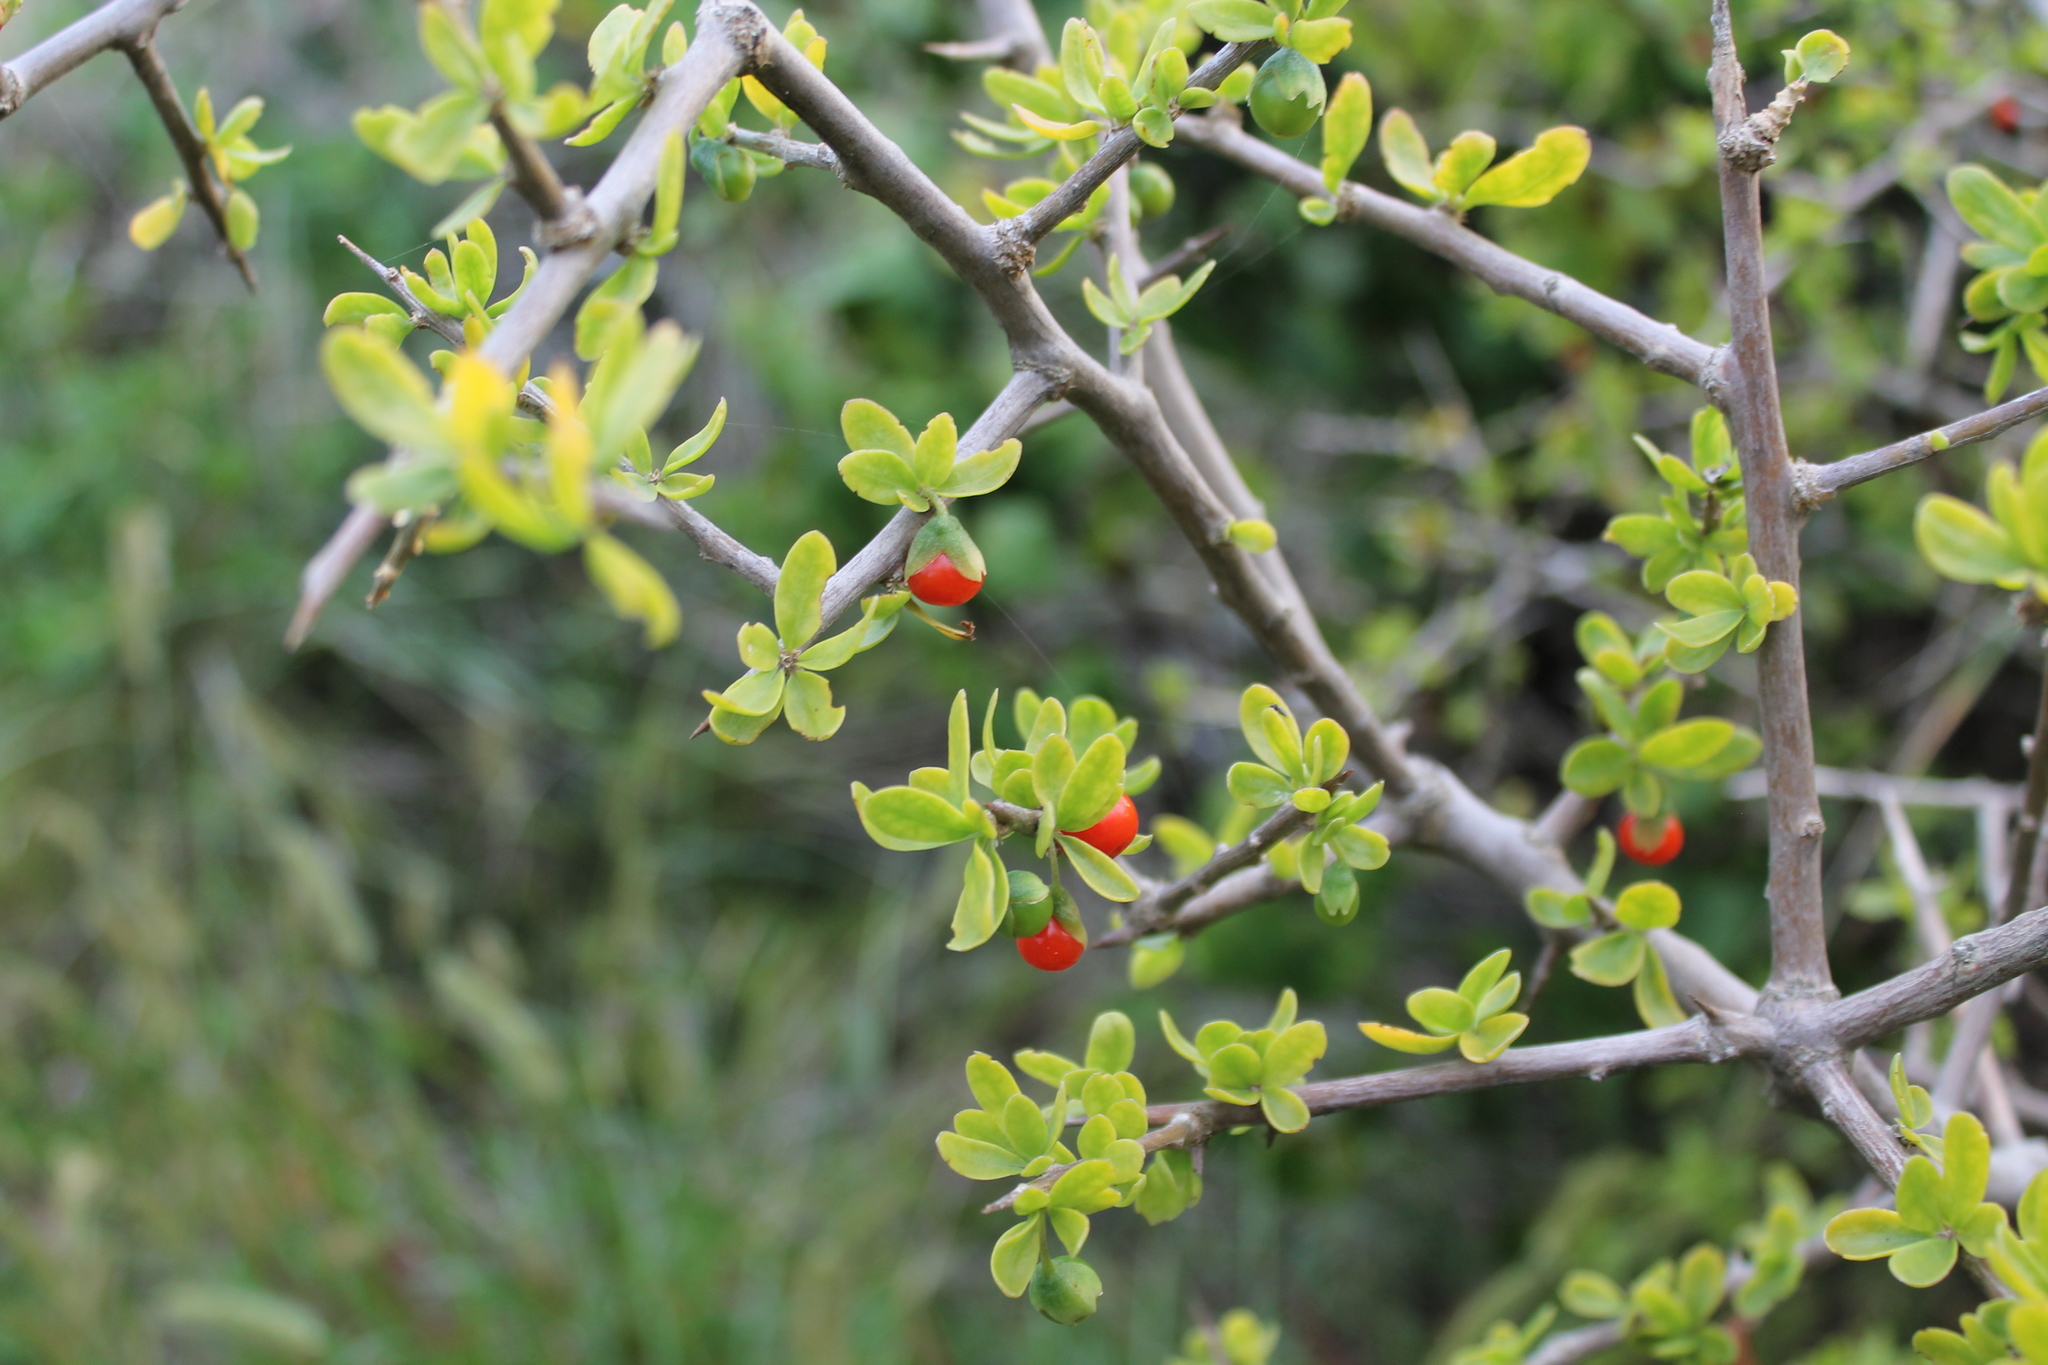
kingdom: Plantae
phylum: Tracheophyta
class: Magnoliopsida
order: Solanales
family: Solanaceae
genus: Lycium
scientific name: Lycium ferocissimum
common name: African boxthorn
